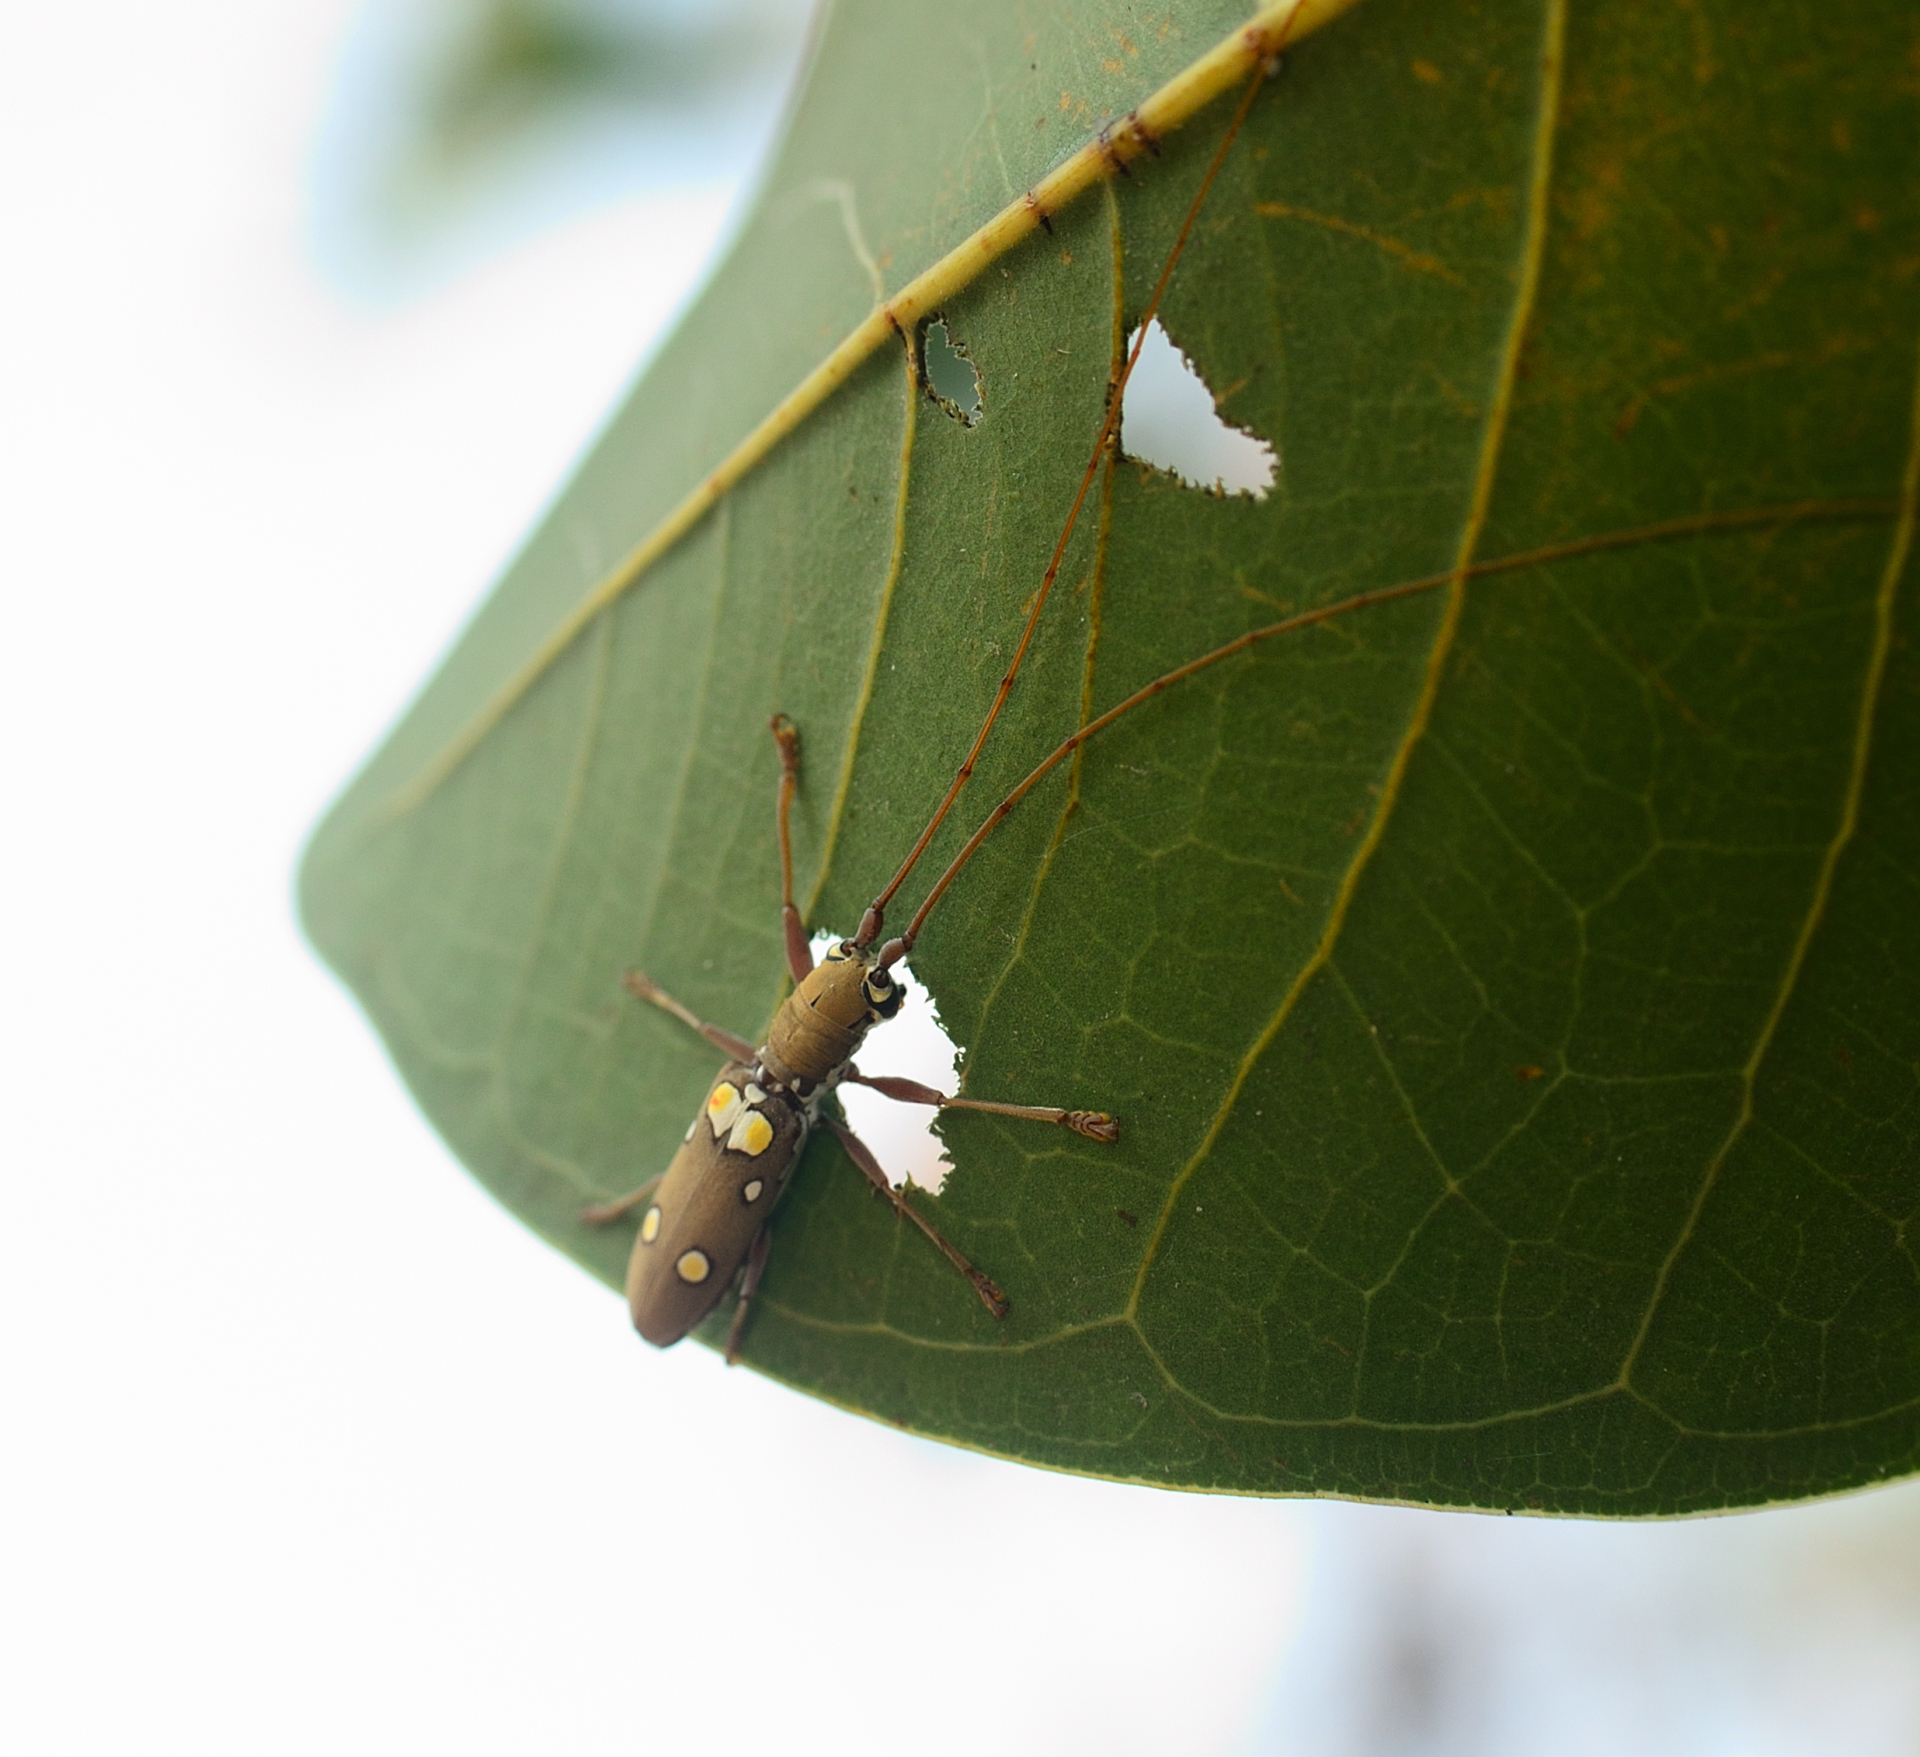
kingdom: Animalia
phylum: Arthropoda
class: Insecta
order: Coleoptera
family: Cerambycidae
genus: Olenecamptus
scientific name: Olenecamptus bilobus
